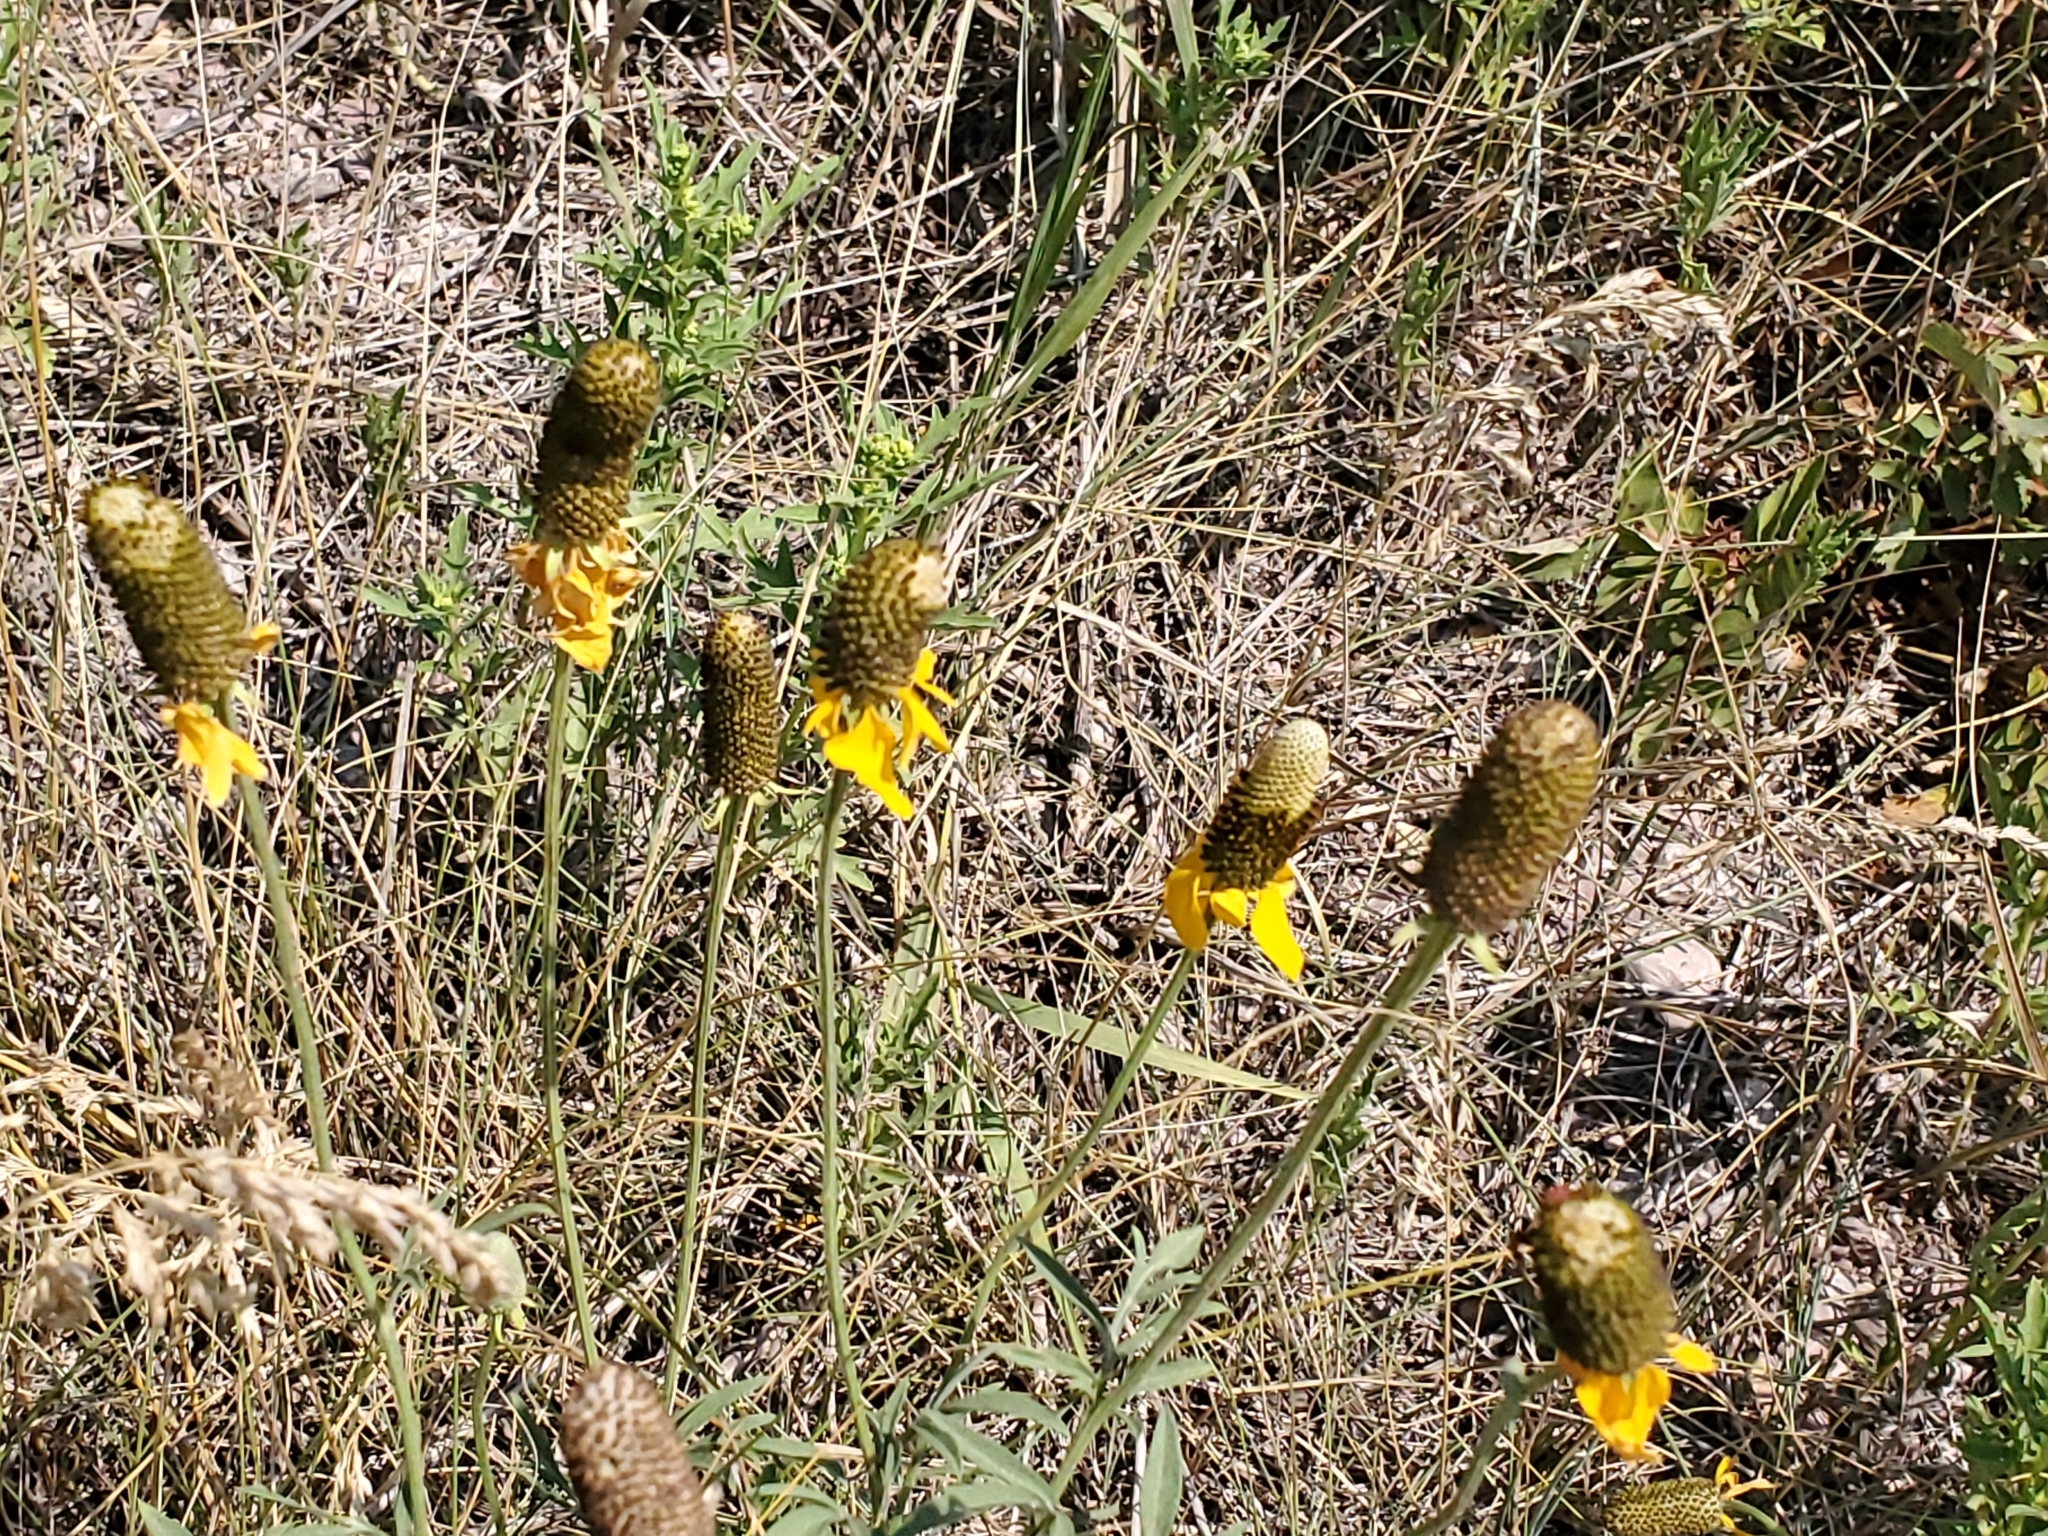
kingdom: Plantae
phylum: Tracheophyta
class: Magnoliopsida
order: Asterales
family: Asteraceae
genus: Ratibida
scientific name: Ratibida columnifera
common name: Prairie coneflower
